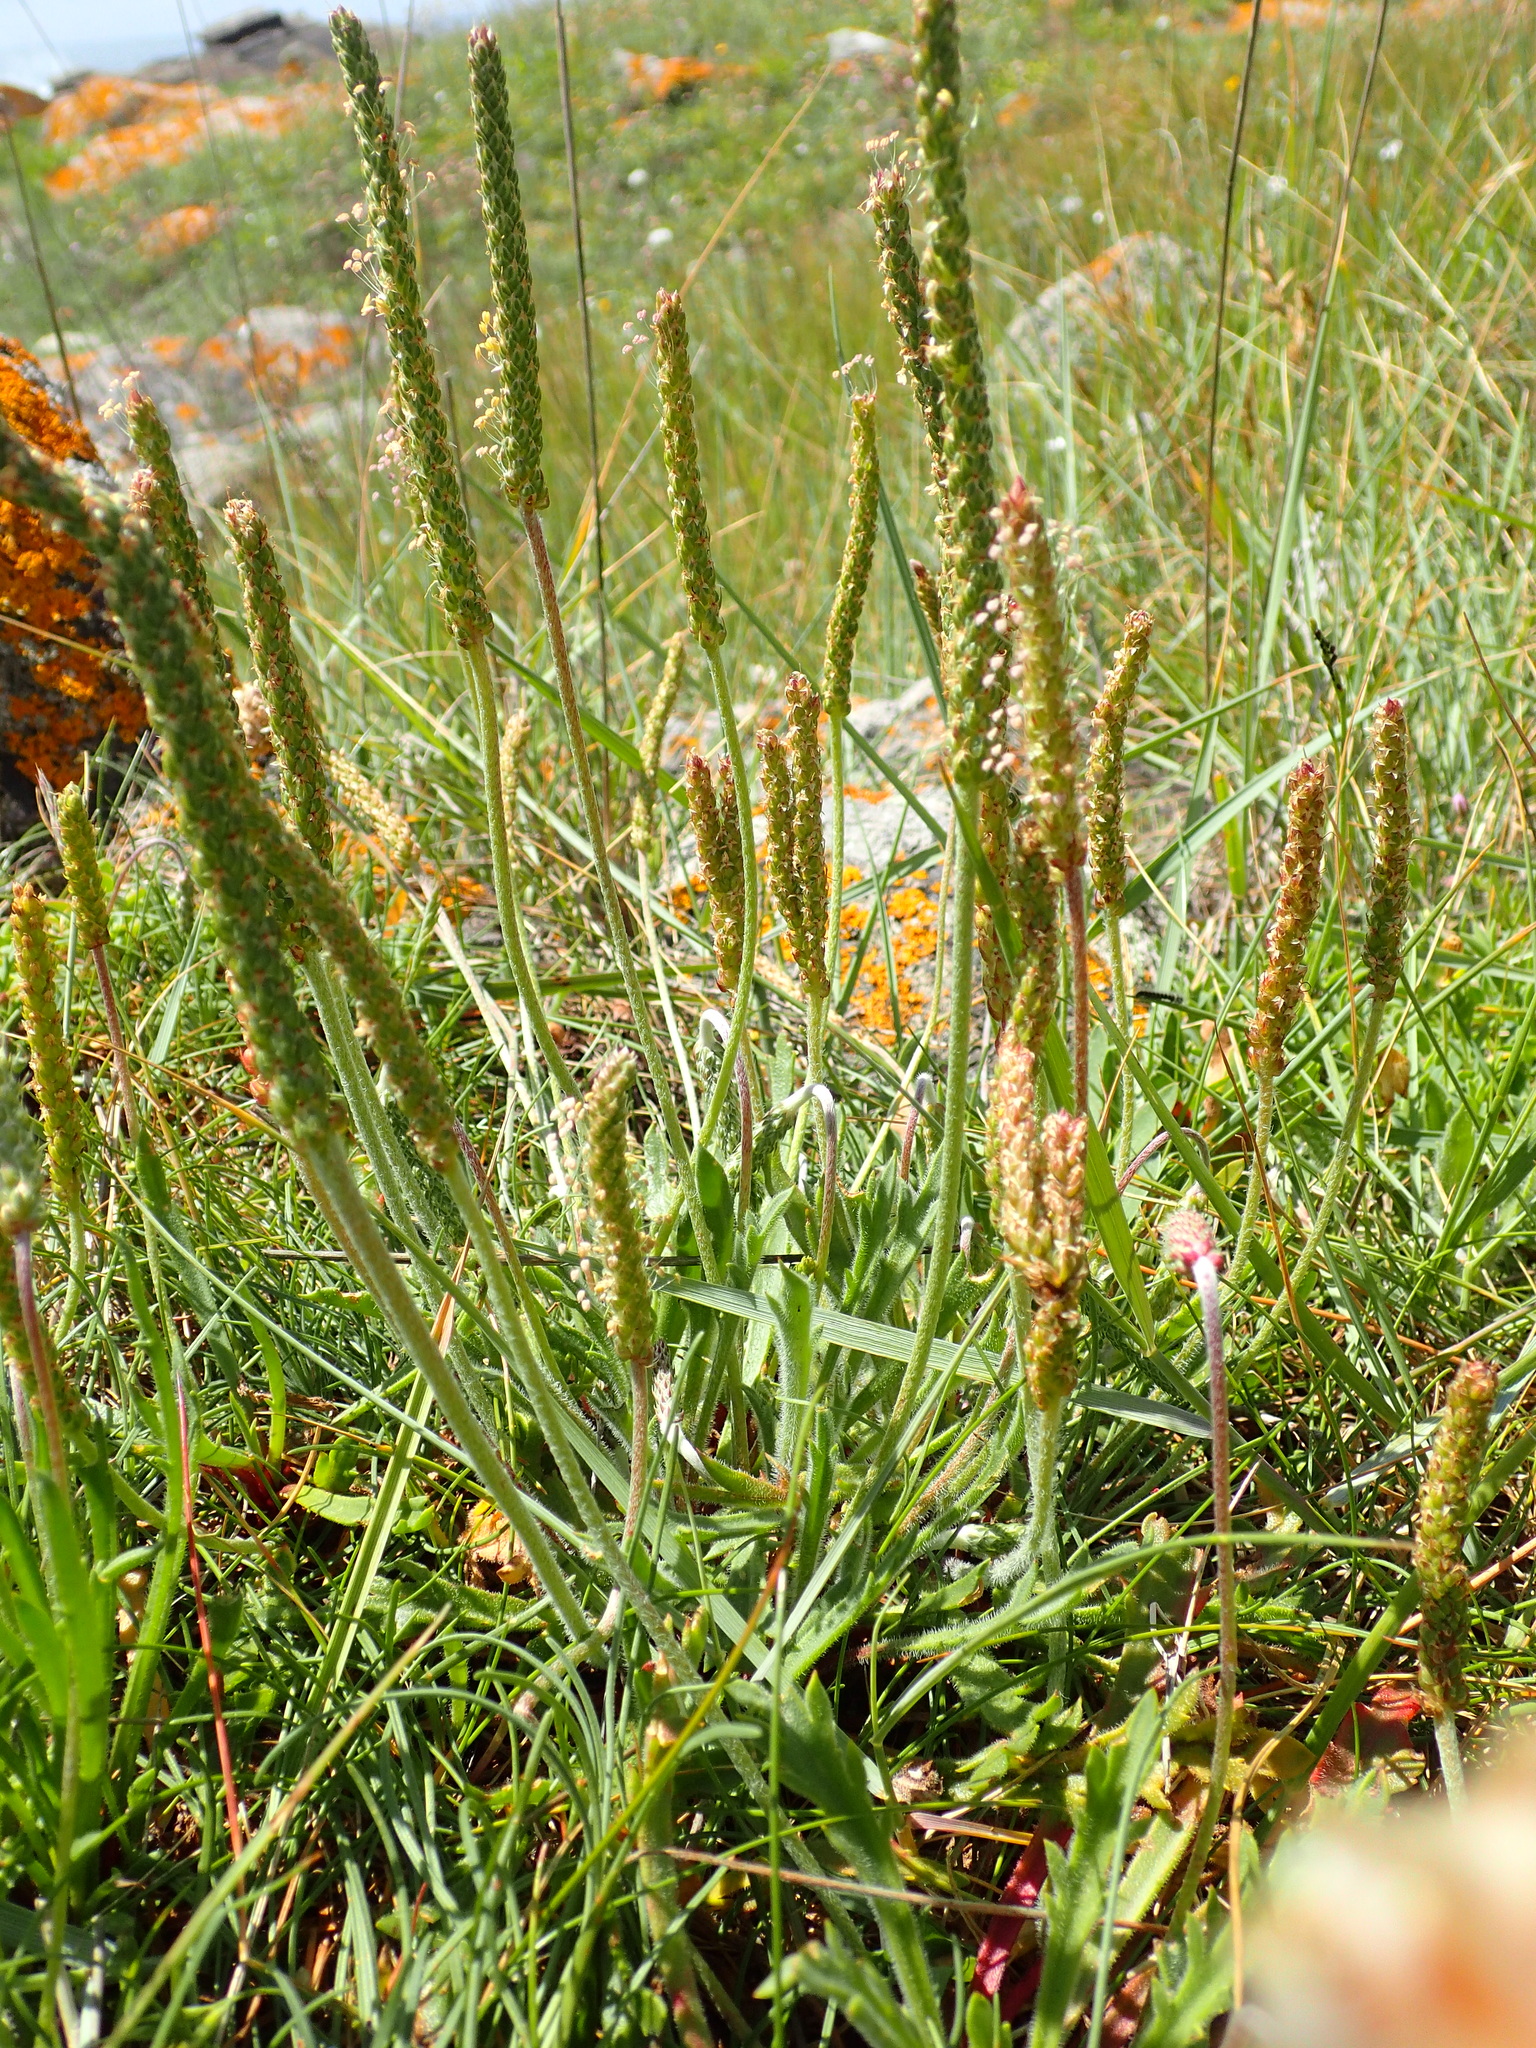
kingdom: Plantae
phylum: Tracheophyta
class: Magnoliopsida
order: Lamiales
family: Plantaginaceae
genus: Plantago
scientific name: Plantago coronopus
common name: Buck's-horn plantain
